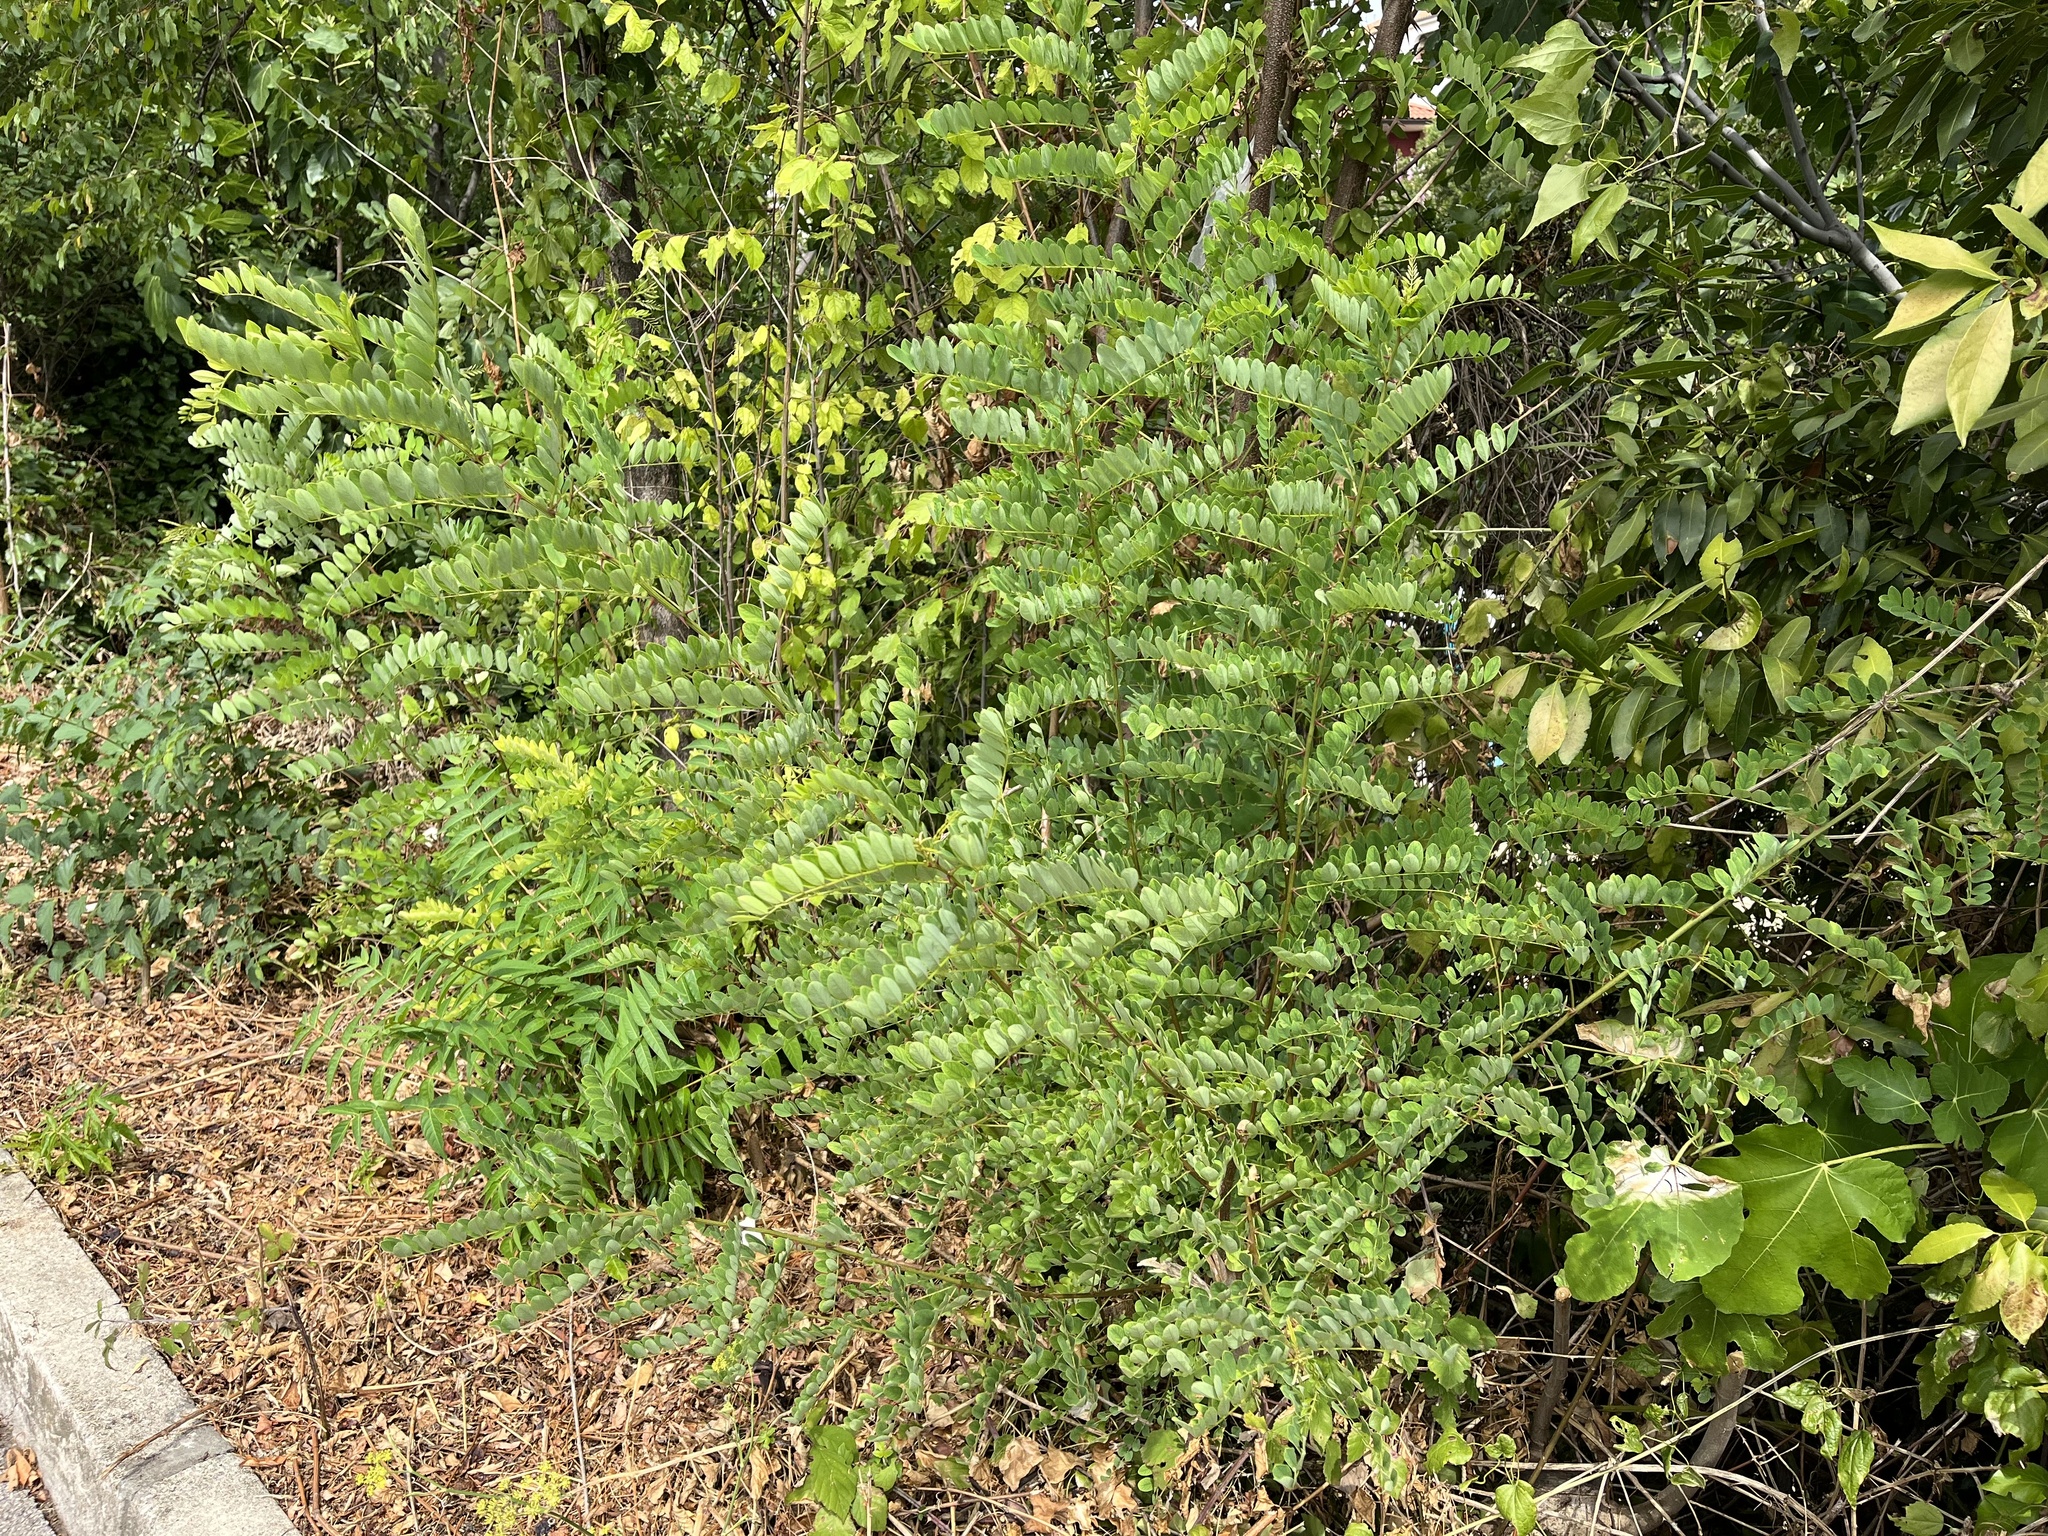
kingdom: Plantae
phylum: Tracheophyta
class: Magnoliopsida
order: Fabales
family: Fabaceae
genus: Robinia
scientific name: Robinia pseudoacacia
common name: Black locust
